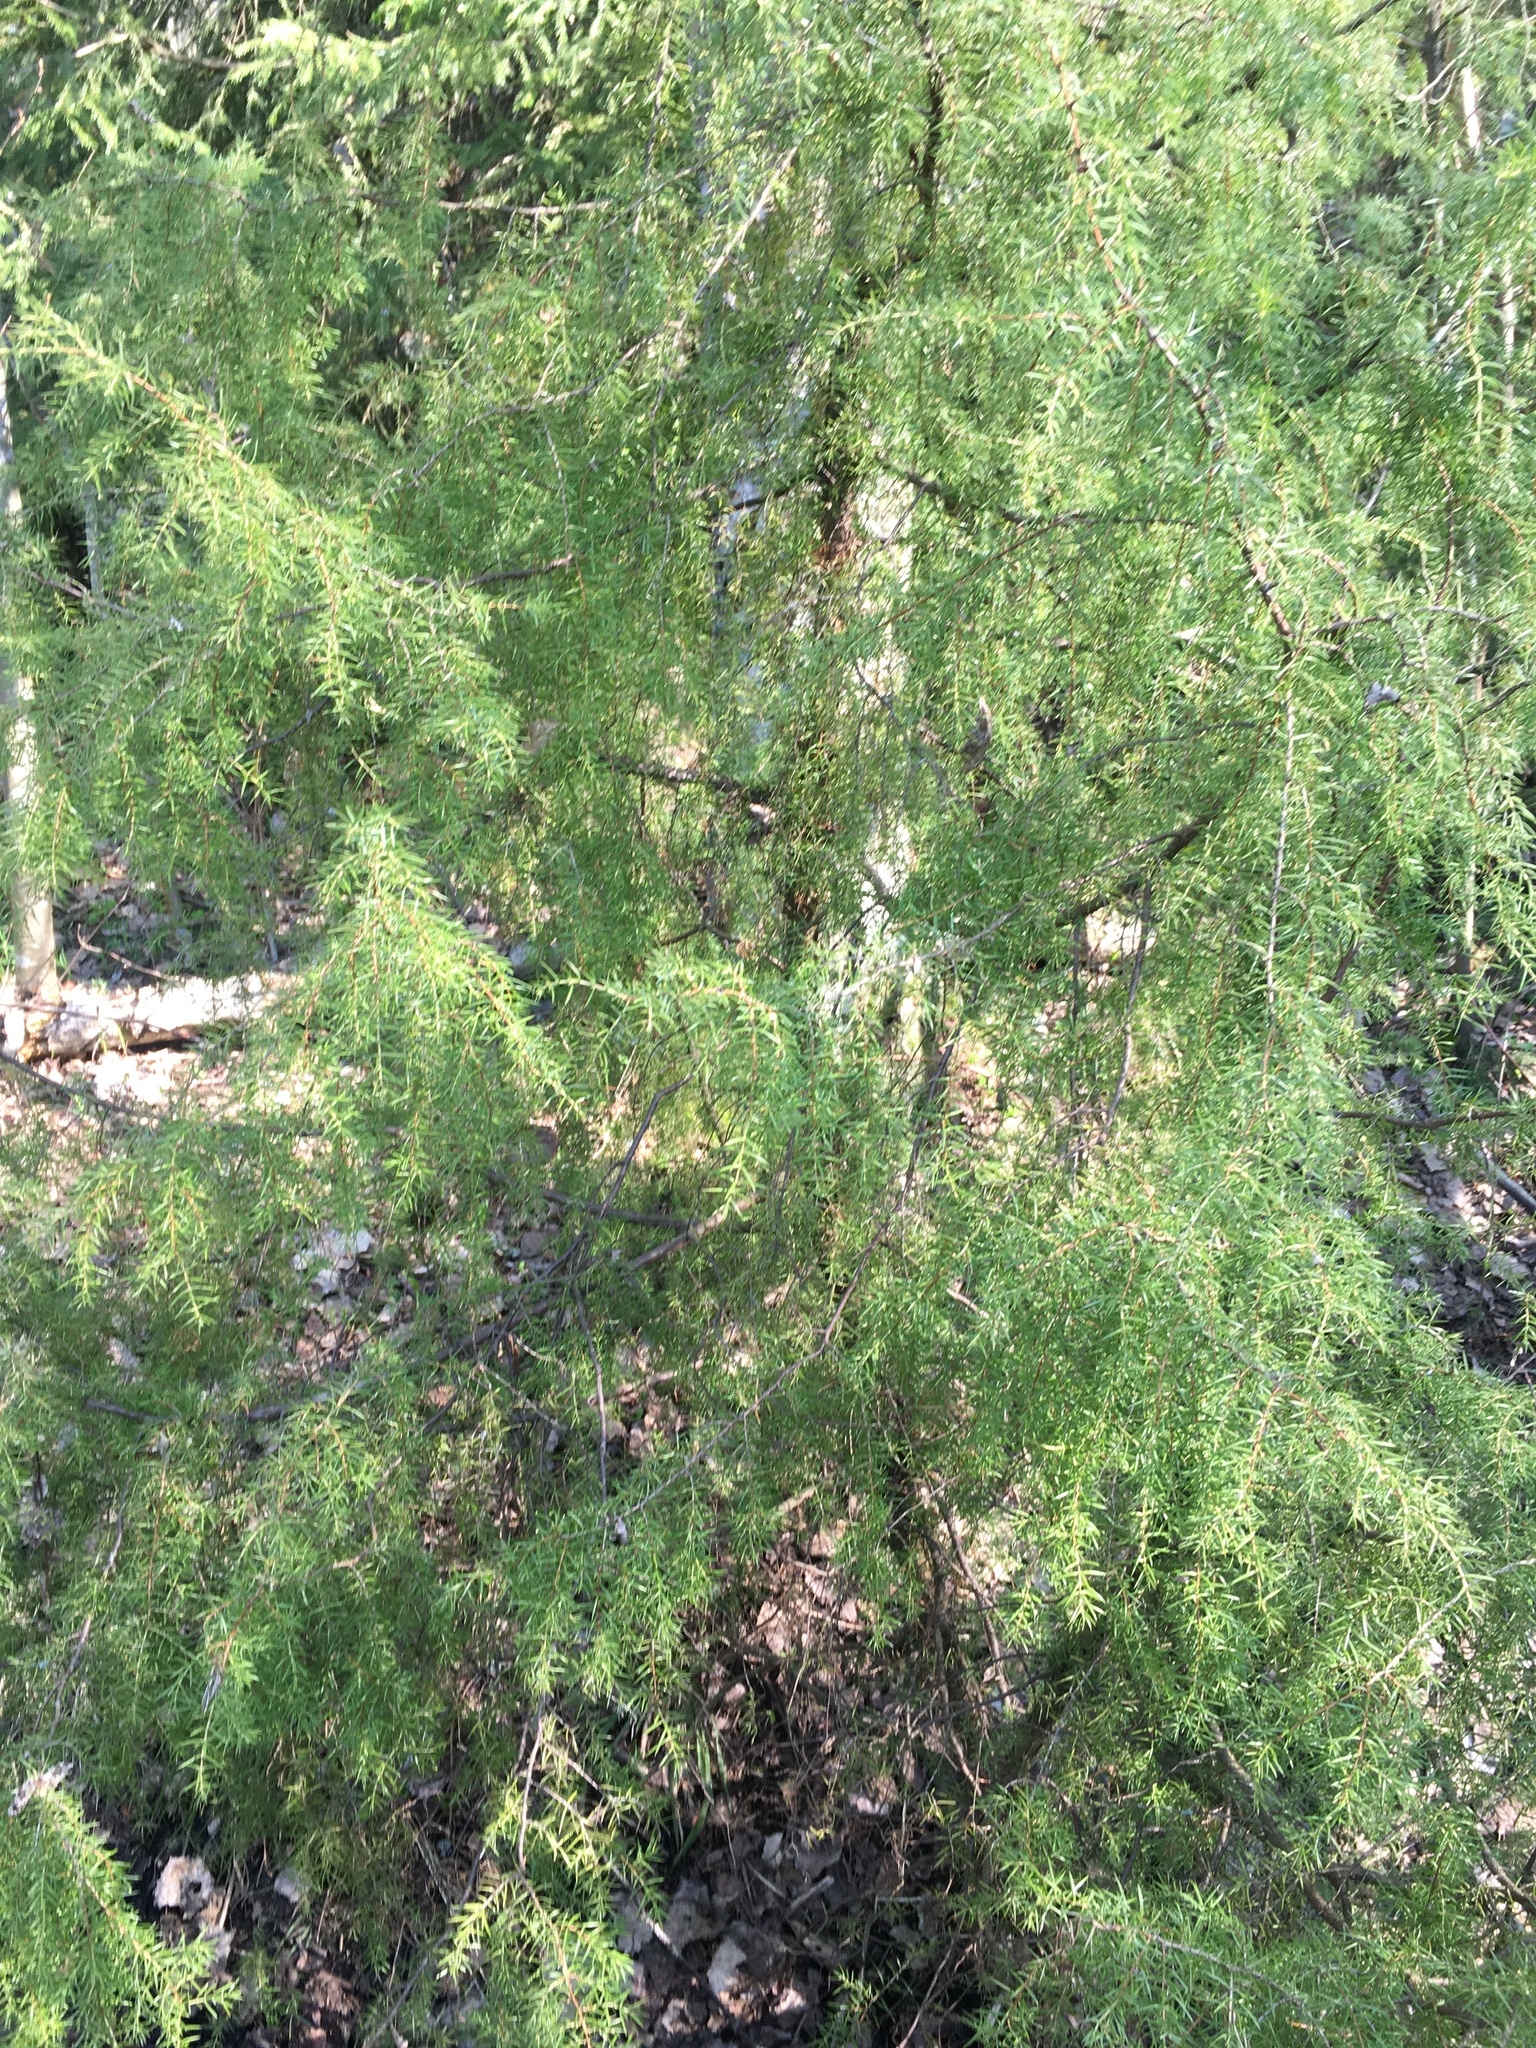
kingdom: Plantae
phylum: Tracheophyta
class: Pinopsida
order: Pinales
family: Cupressaceae
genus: Juniperus
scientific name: Juniperus communis
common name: Common juniper
